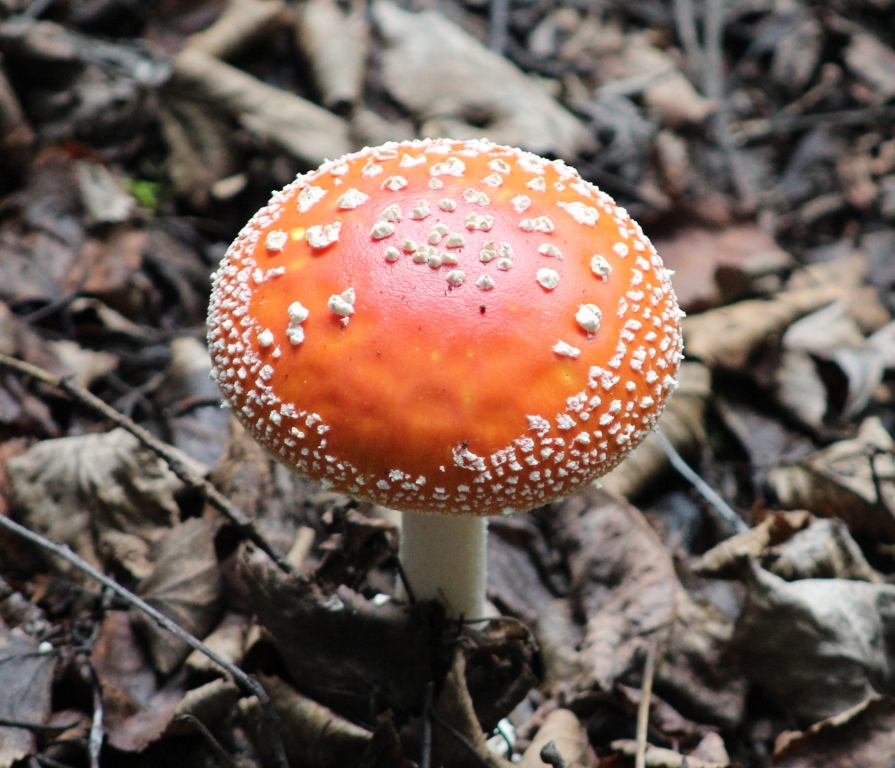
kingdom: Fungi
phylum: Basidiomycota
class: Agaricomycetes
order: Agaricales
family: Amanitaceae
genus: Amanita
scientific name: Amanita muscaria
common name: Fly agaric
